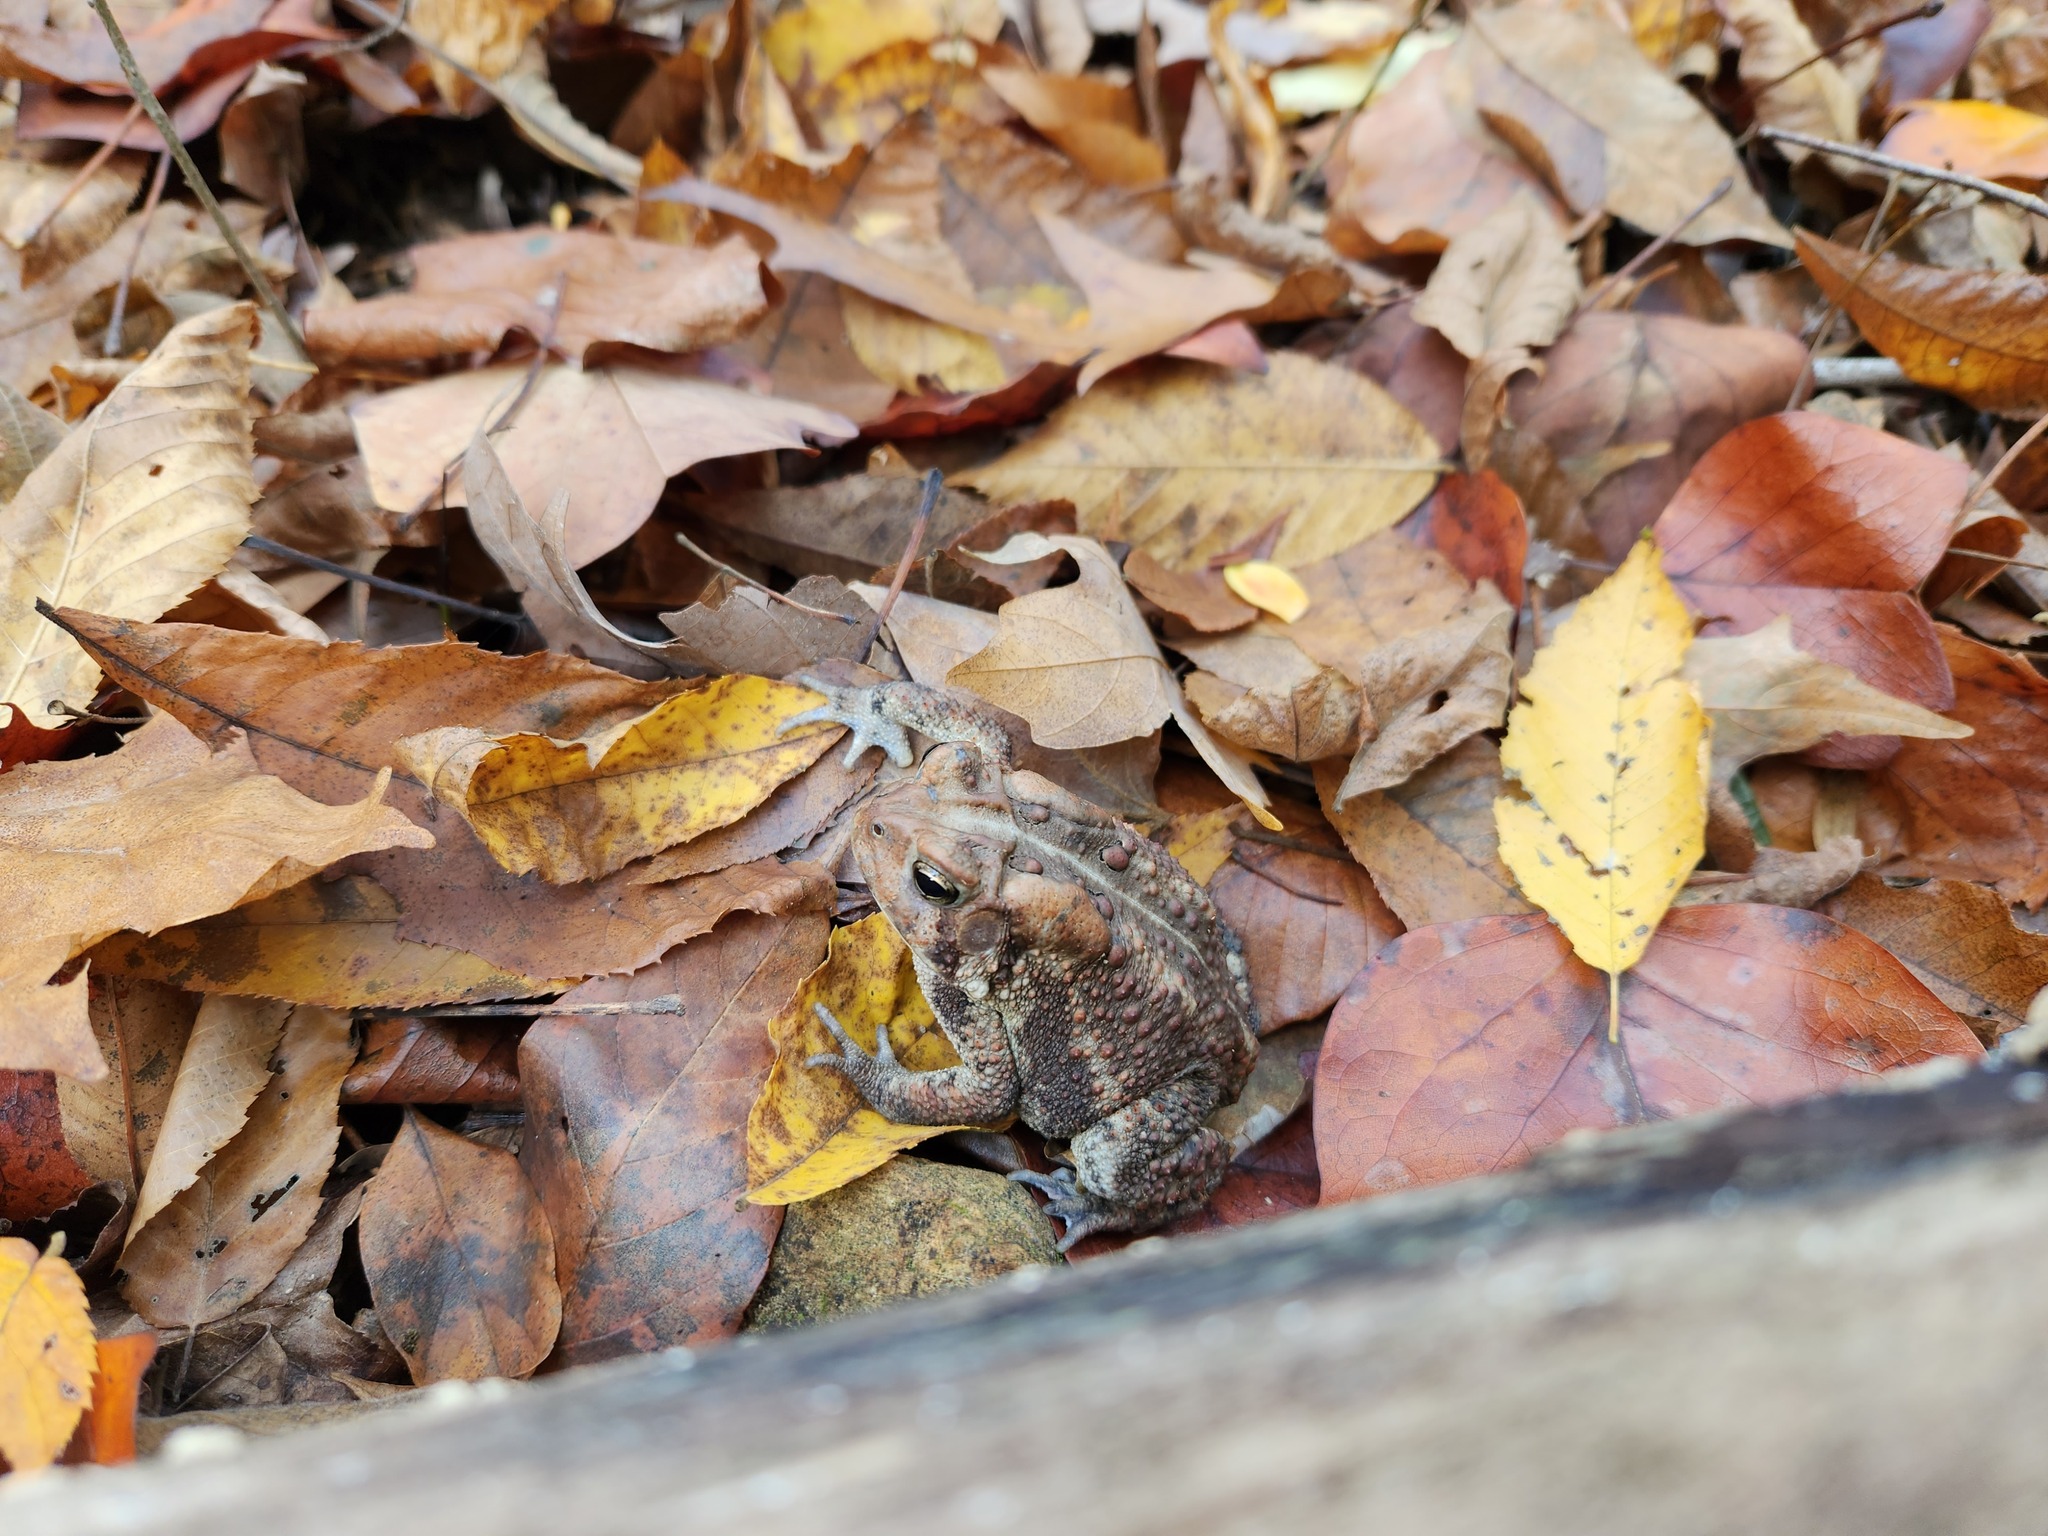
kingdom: Animalia
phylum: Chordata
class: Amphibia
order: Anura
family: Bufonidae
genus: Anaxyrus
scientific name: Anaxyrus americanus
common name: American toad
